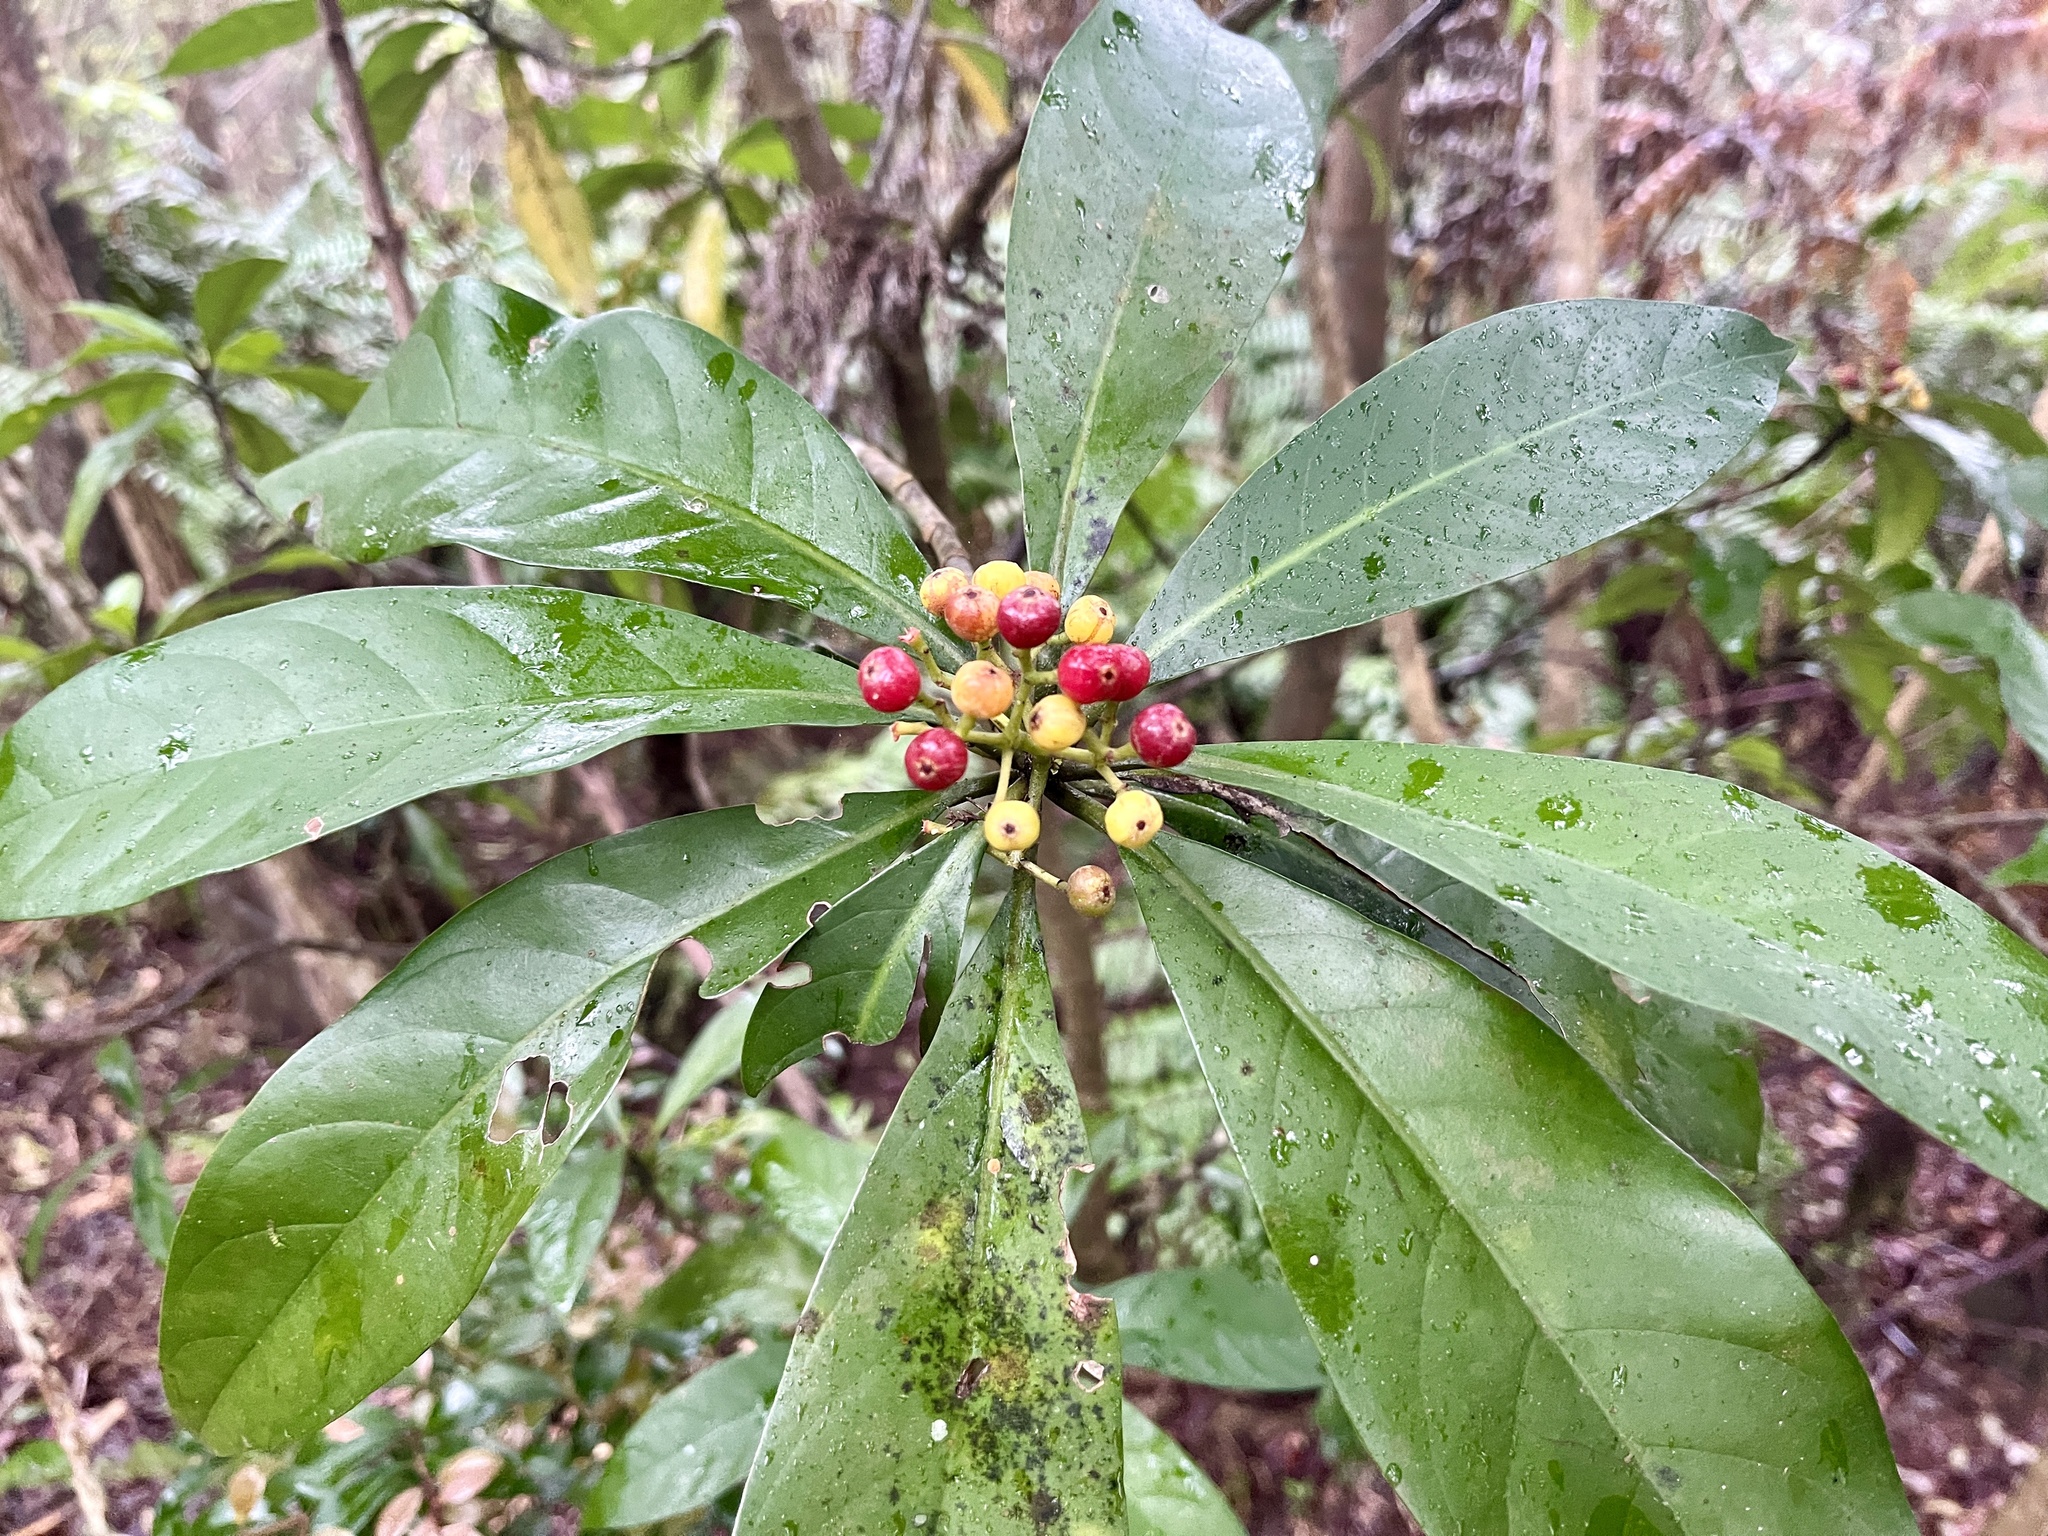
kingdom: Plantae
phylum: Tracheophyta
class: Magnoliopsida
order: Gentianales
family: Rubiaceae
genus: Psychotria
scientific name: Psychotria asiatica
